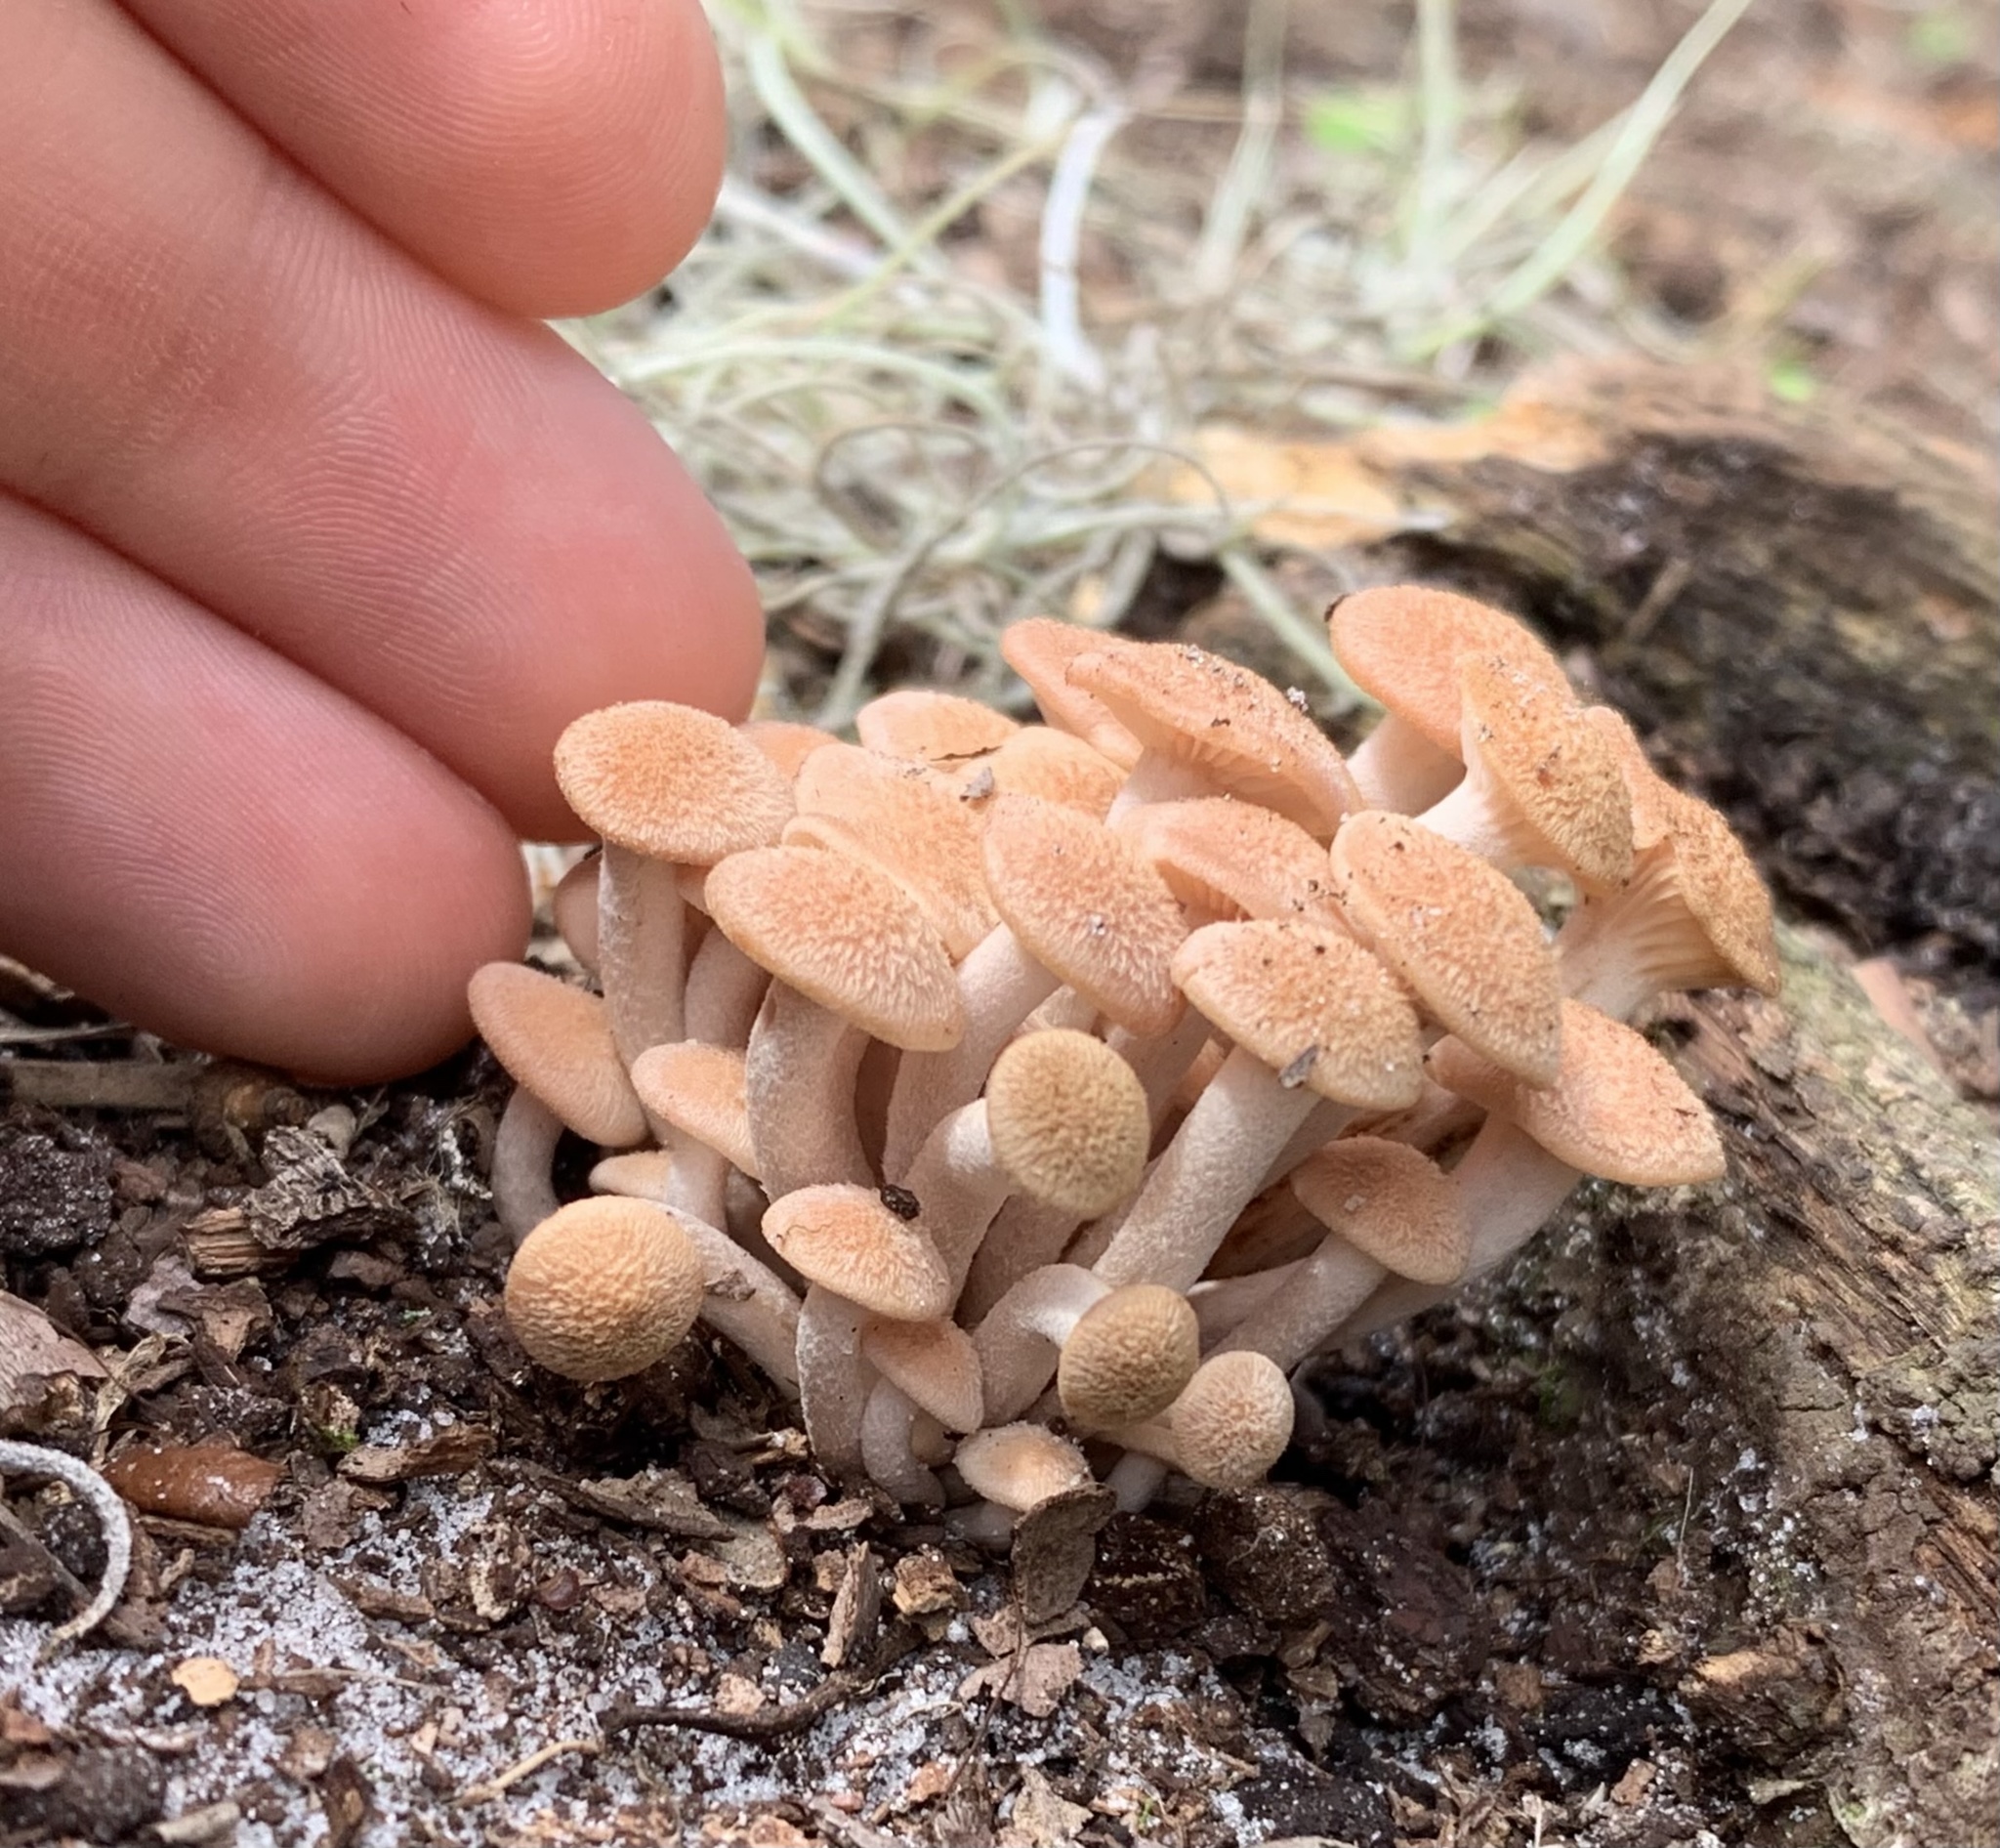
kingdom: Fungi
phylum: Basidiomycota
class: Agaricomycetes
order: Agaricales
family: Physalacriaceae
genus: Desarmillaria
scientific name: Desarmillaria caespitosa
